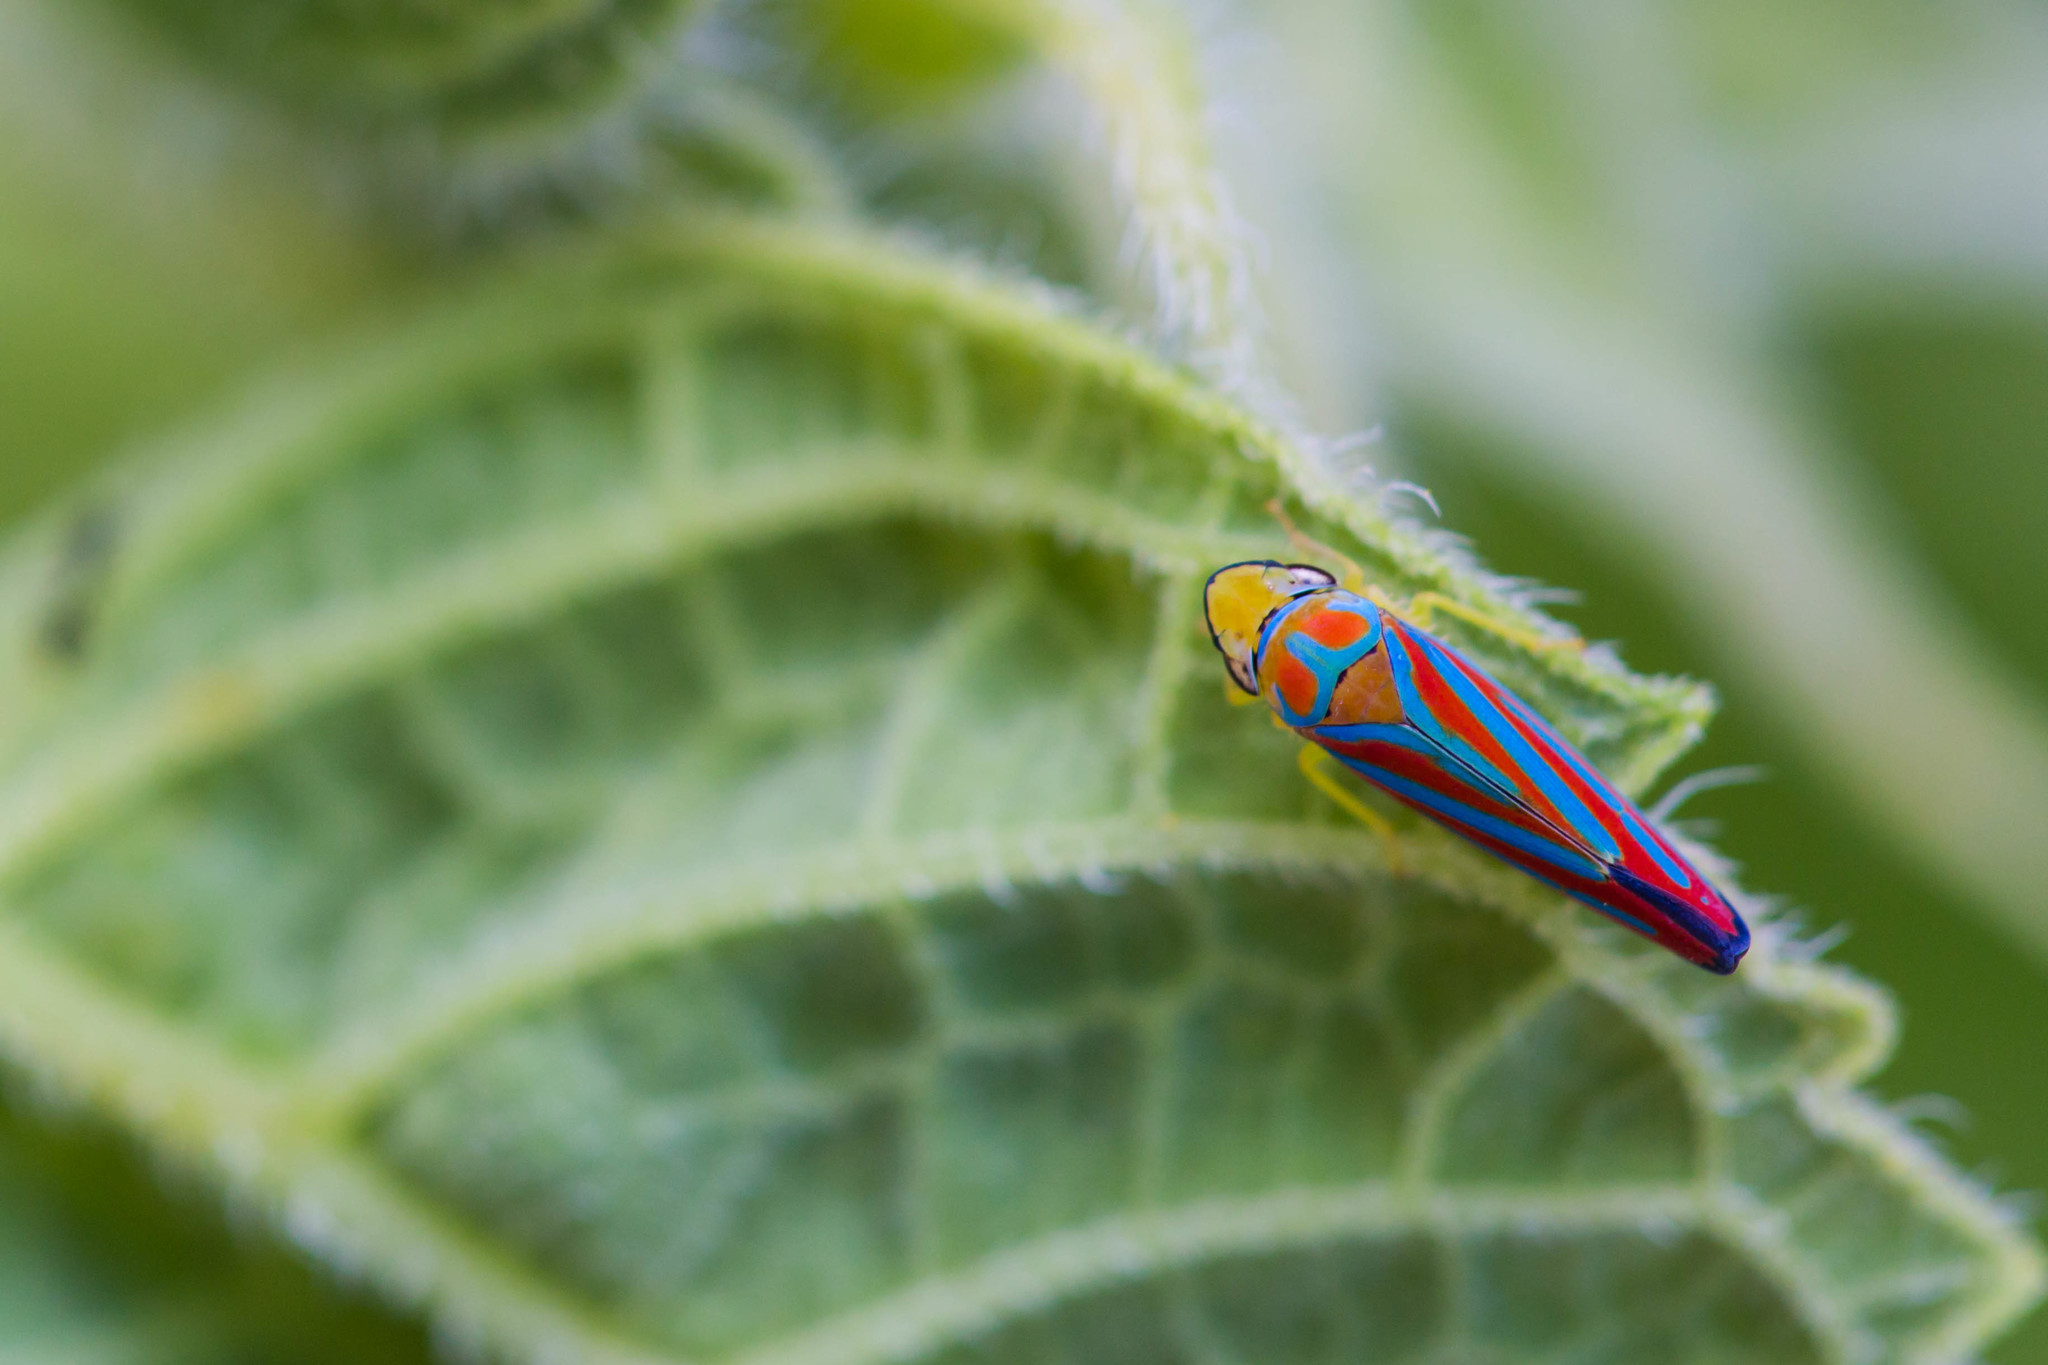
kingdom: Animalia
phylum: Arthropoda
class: Insecta
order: Hemiptera
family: Cicadellidae
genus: Graphocephala
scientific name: Graphocephala coccinea
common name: Candy-striped leafhopper
